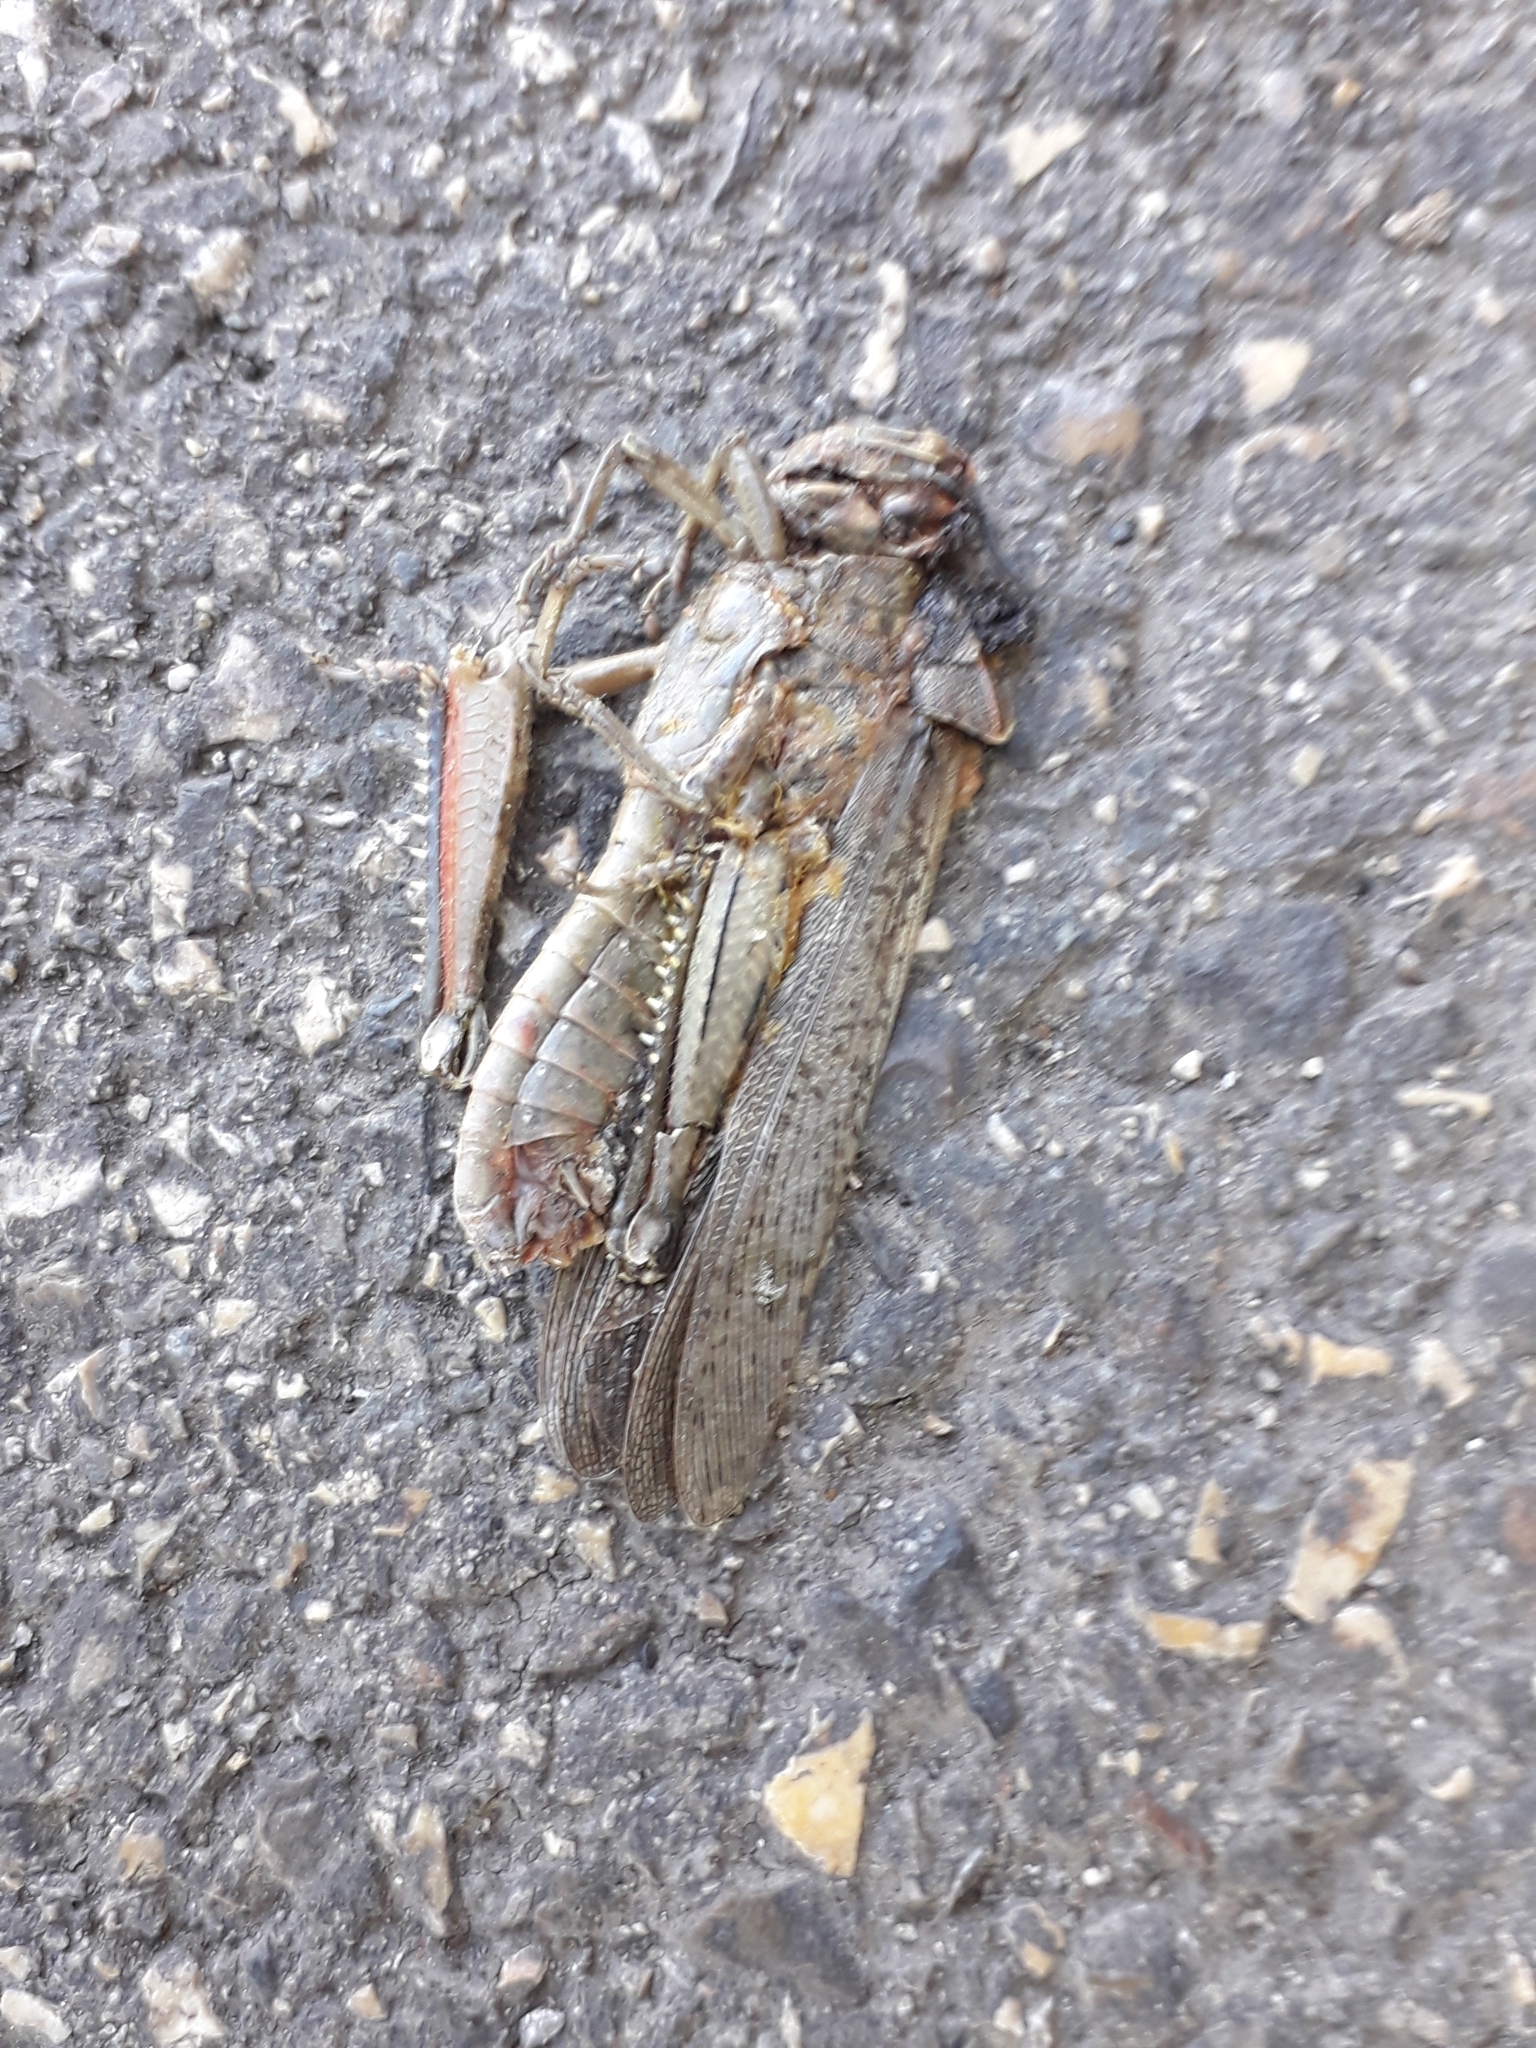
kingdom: Animalia
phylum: Arthropoda
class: Insecta
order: Orthoptera
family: Acrididae
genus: Anacridium
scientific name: Anacridium aegyptium
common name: Egyptian grasshopper
